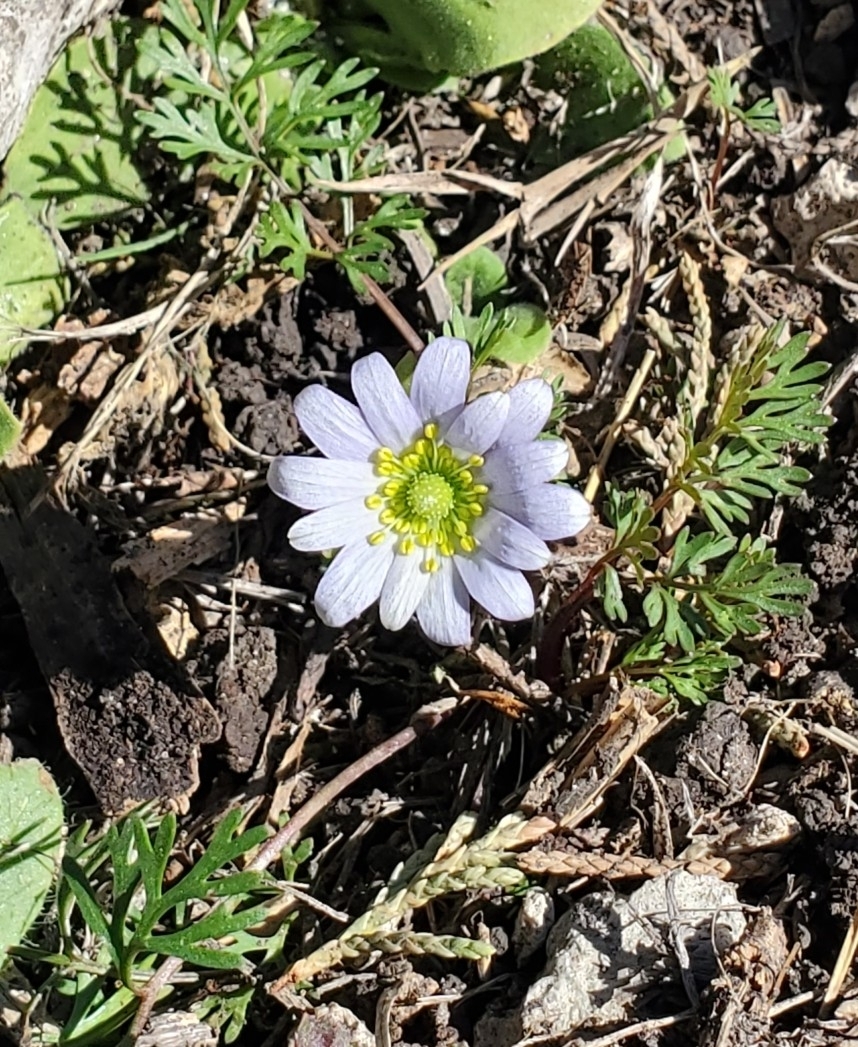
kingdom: Plantae
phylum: Tracheophyta
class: Magnoliopsida
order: Ranunculales
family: Ranunculaceae
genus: Anemone
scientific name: Anemone berlandieri
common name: Ten-petal anemone
